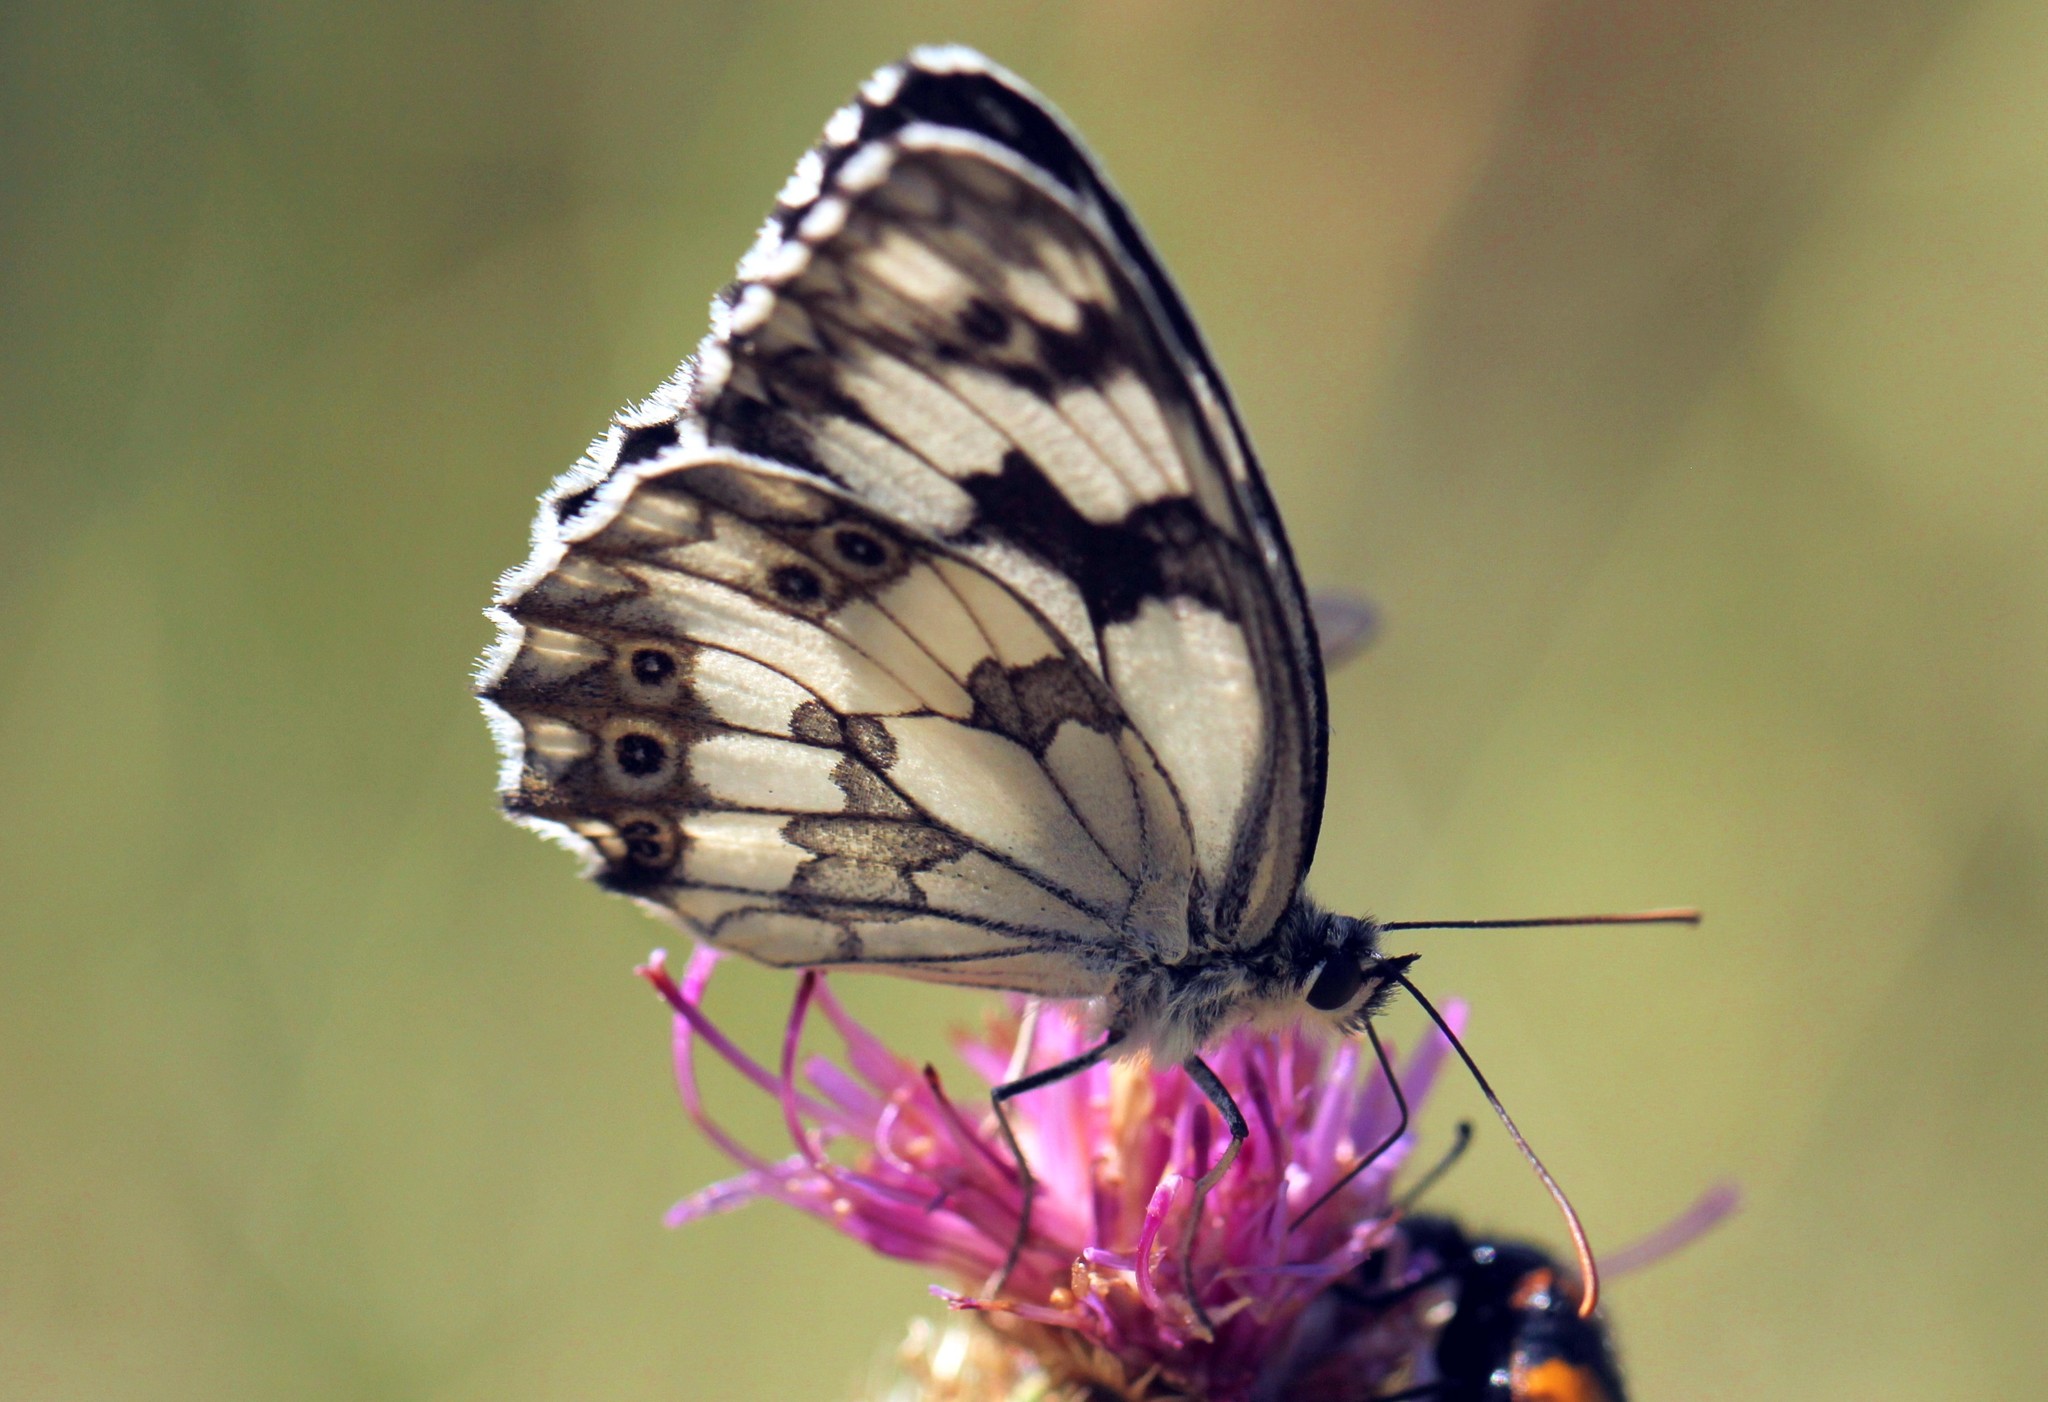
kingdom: Animalia
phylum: Arthropoda
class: Insecta
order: Lepidoptera
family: Nymphalidae
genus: Melanargia
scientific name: Melanargia lachesis
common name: Iberian marbled white
